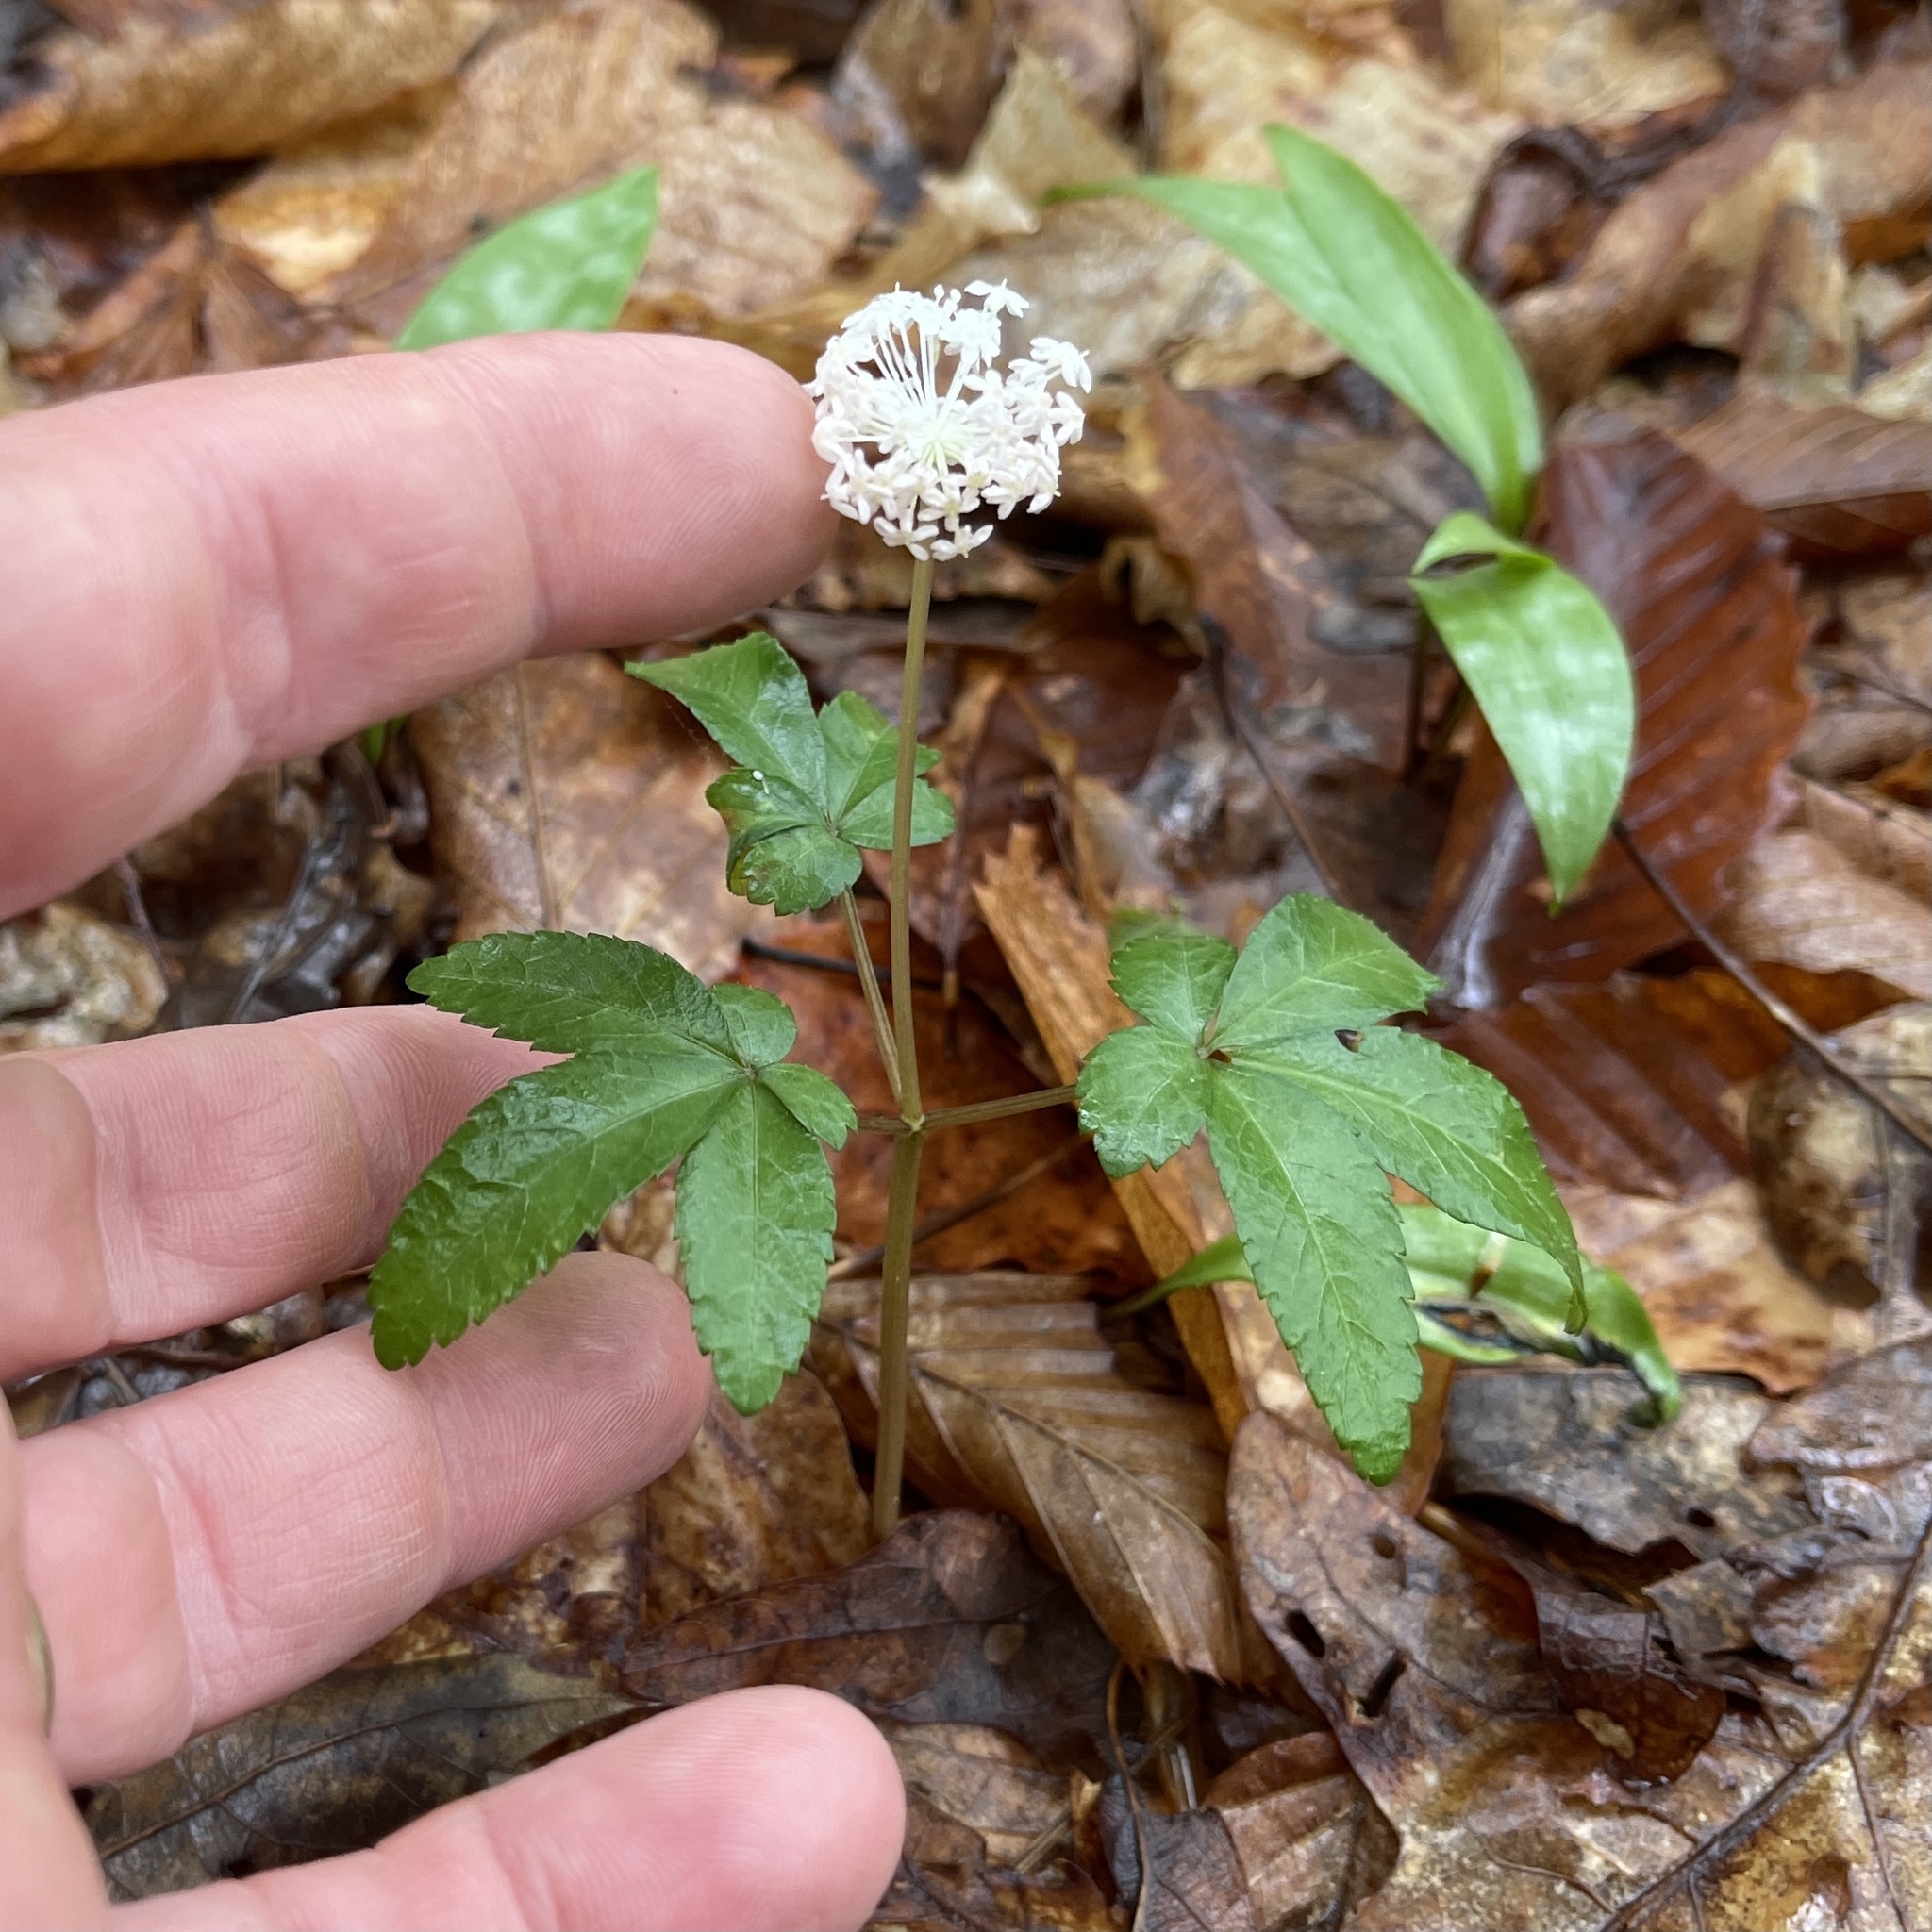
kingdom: Plantae
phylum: Tracheophyta
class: Magnoliopsida
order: Apiales
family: Araliaceae
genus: Panax
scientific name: Panax trifolius
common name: Dwarf ginseng
